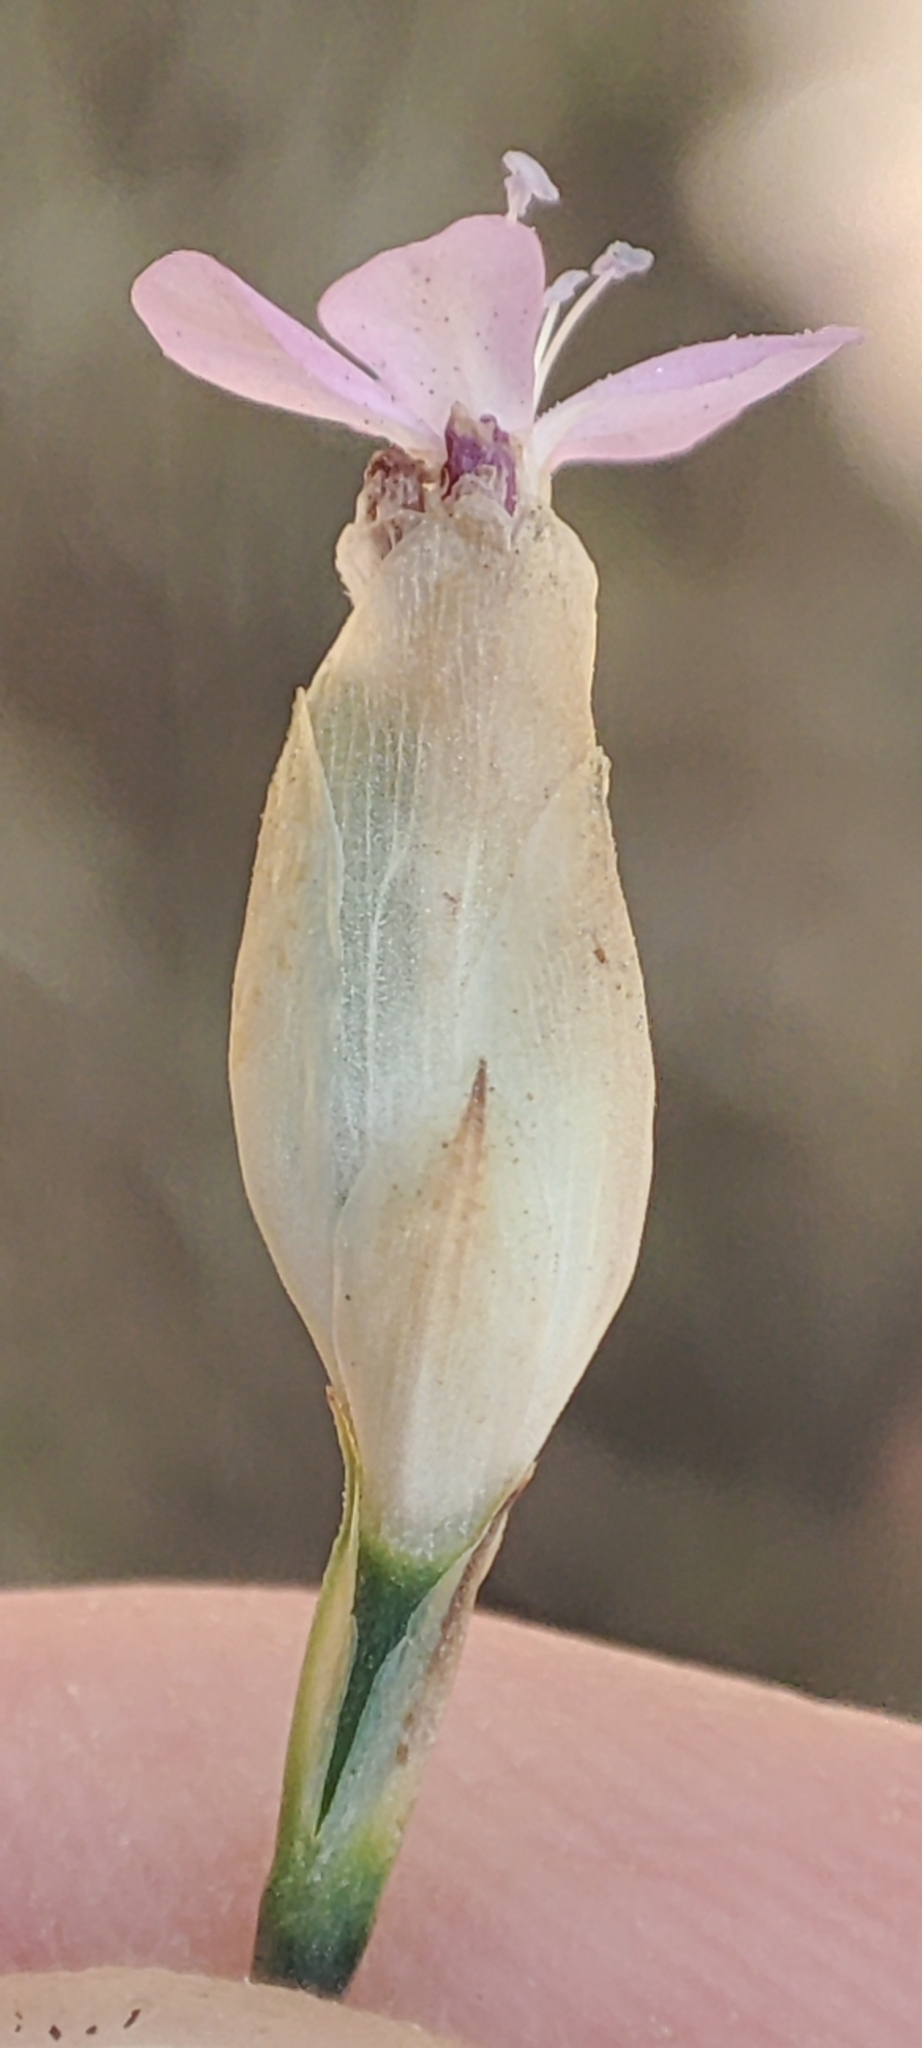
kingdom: Plantae
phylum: Tracheophyta
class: Magnoliopsida
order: Caryophyllales
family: Caryophyllaceae
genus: Petrorhagia
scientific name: Petrorhagia prolifera
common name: Proliferous pink
